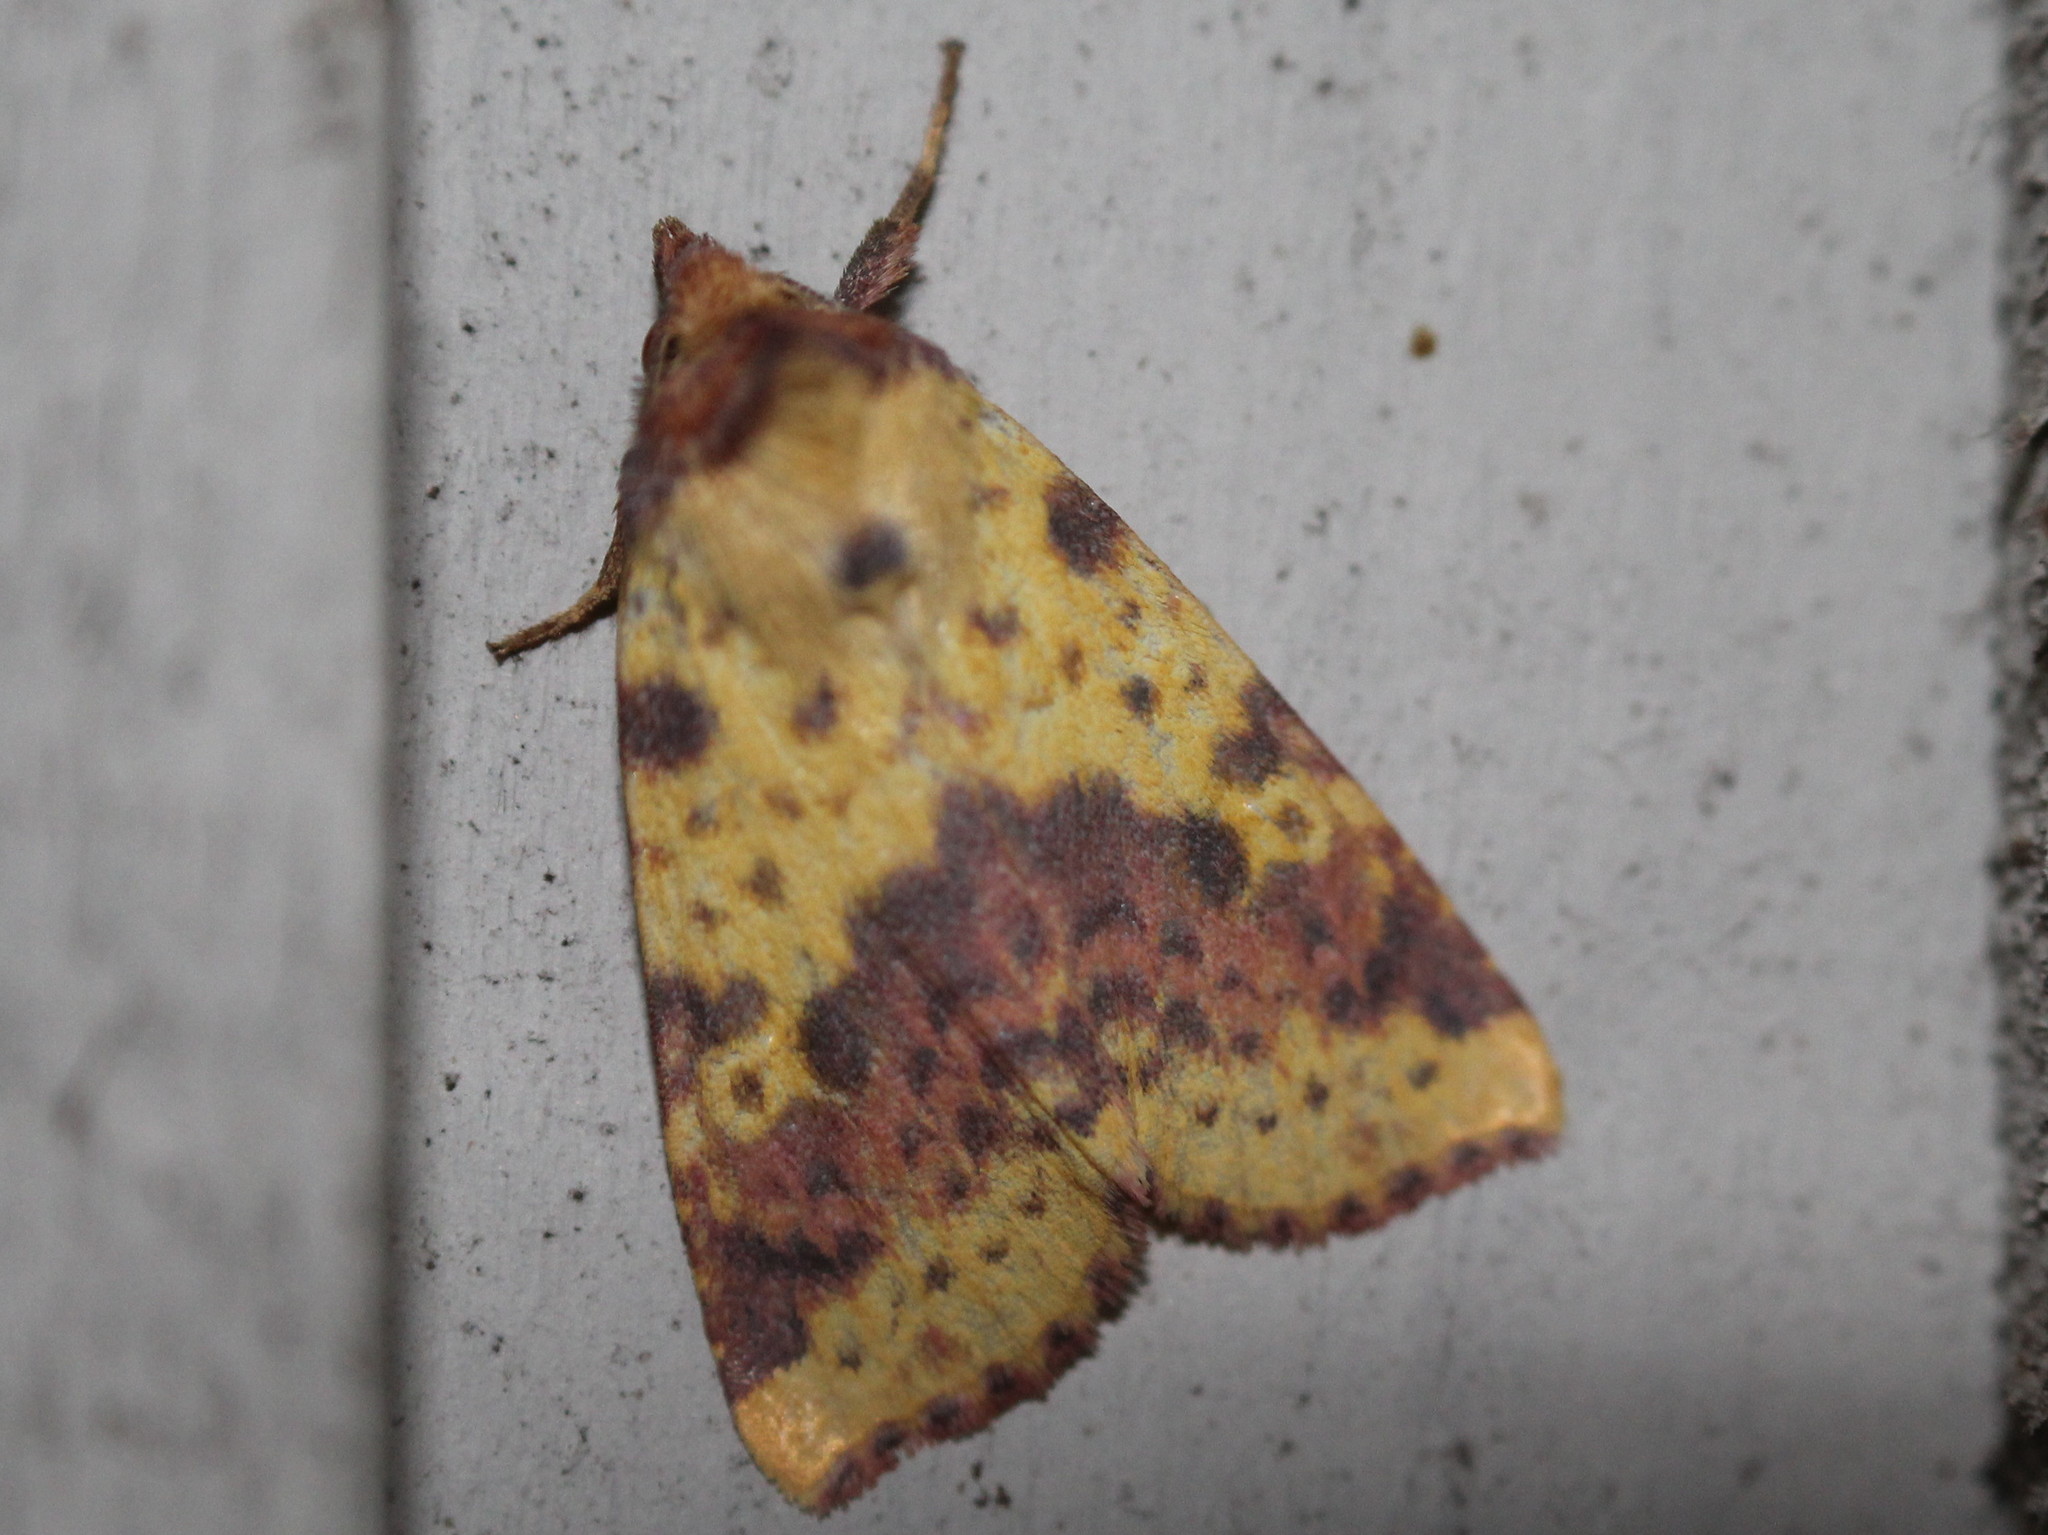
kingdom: Animalia
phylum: Arthropoda
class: Insecta
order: Lepidoptera
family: Noctuidae
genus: Xanthia
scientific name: Xanthia tatago
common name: Pink-banded sallow
